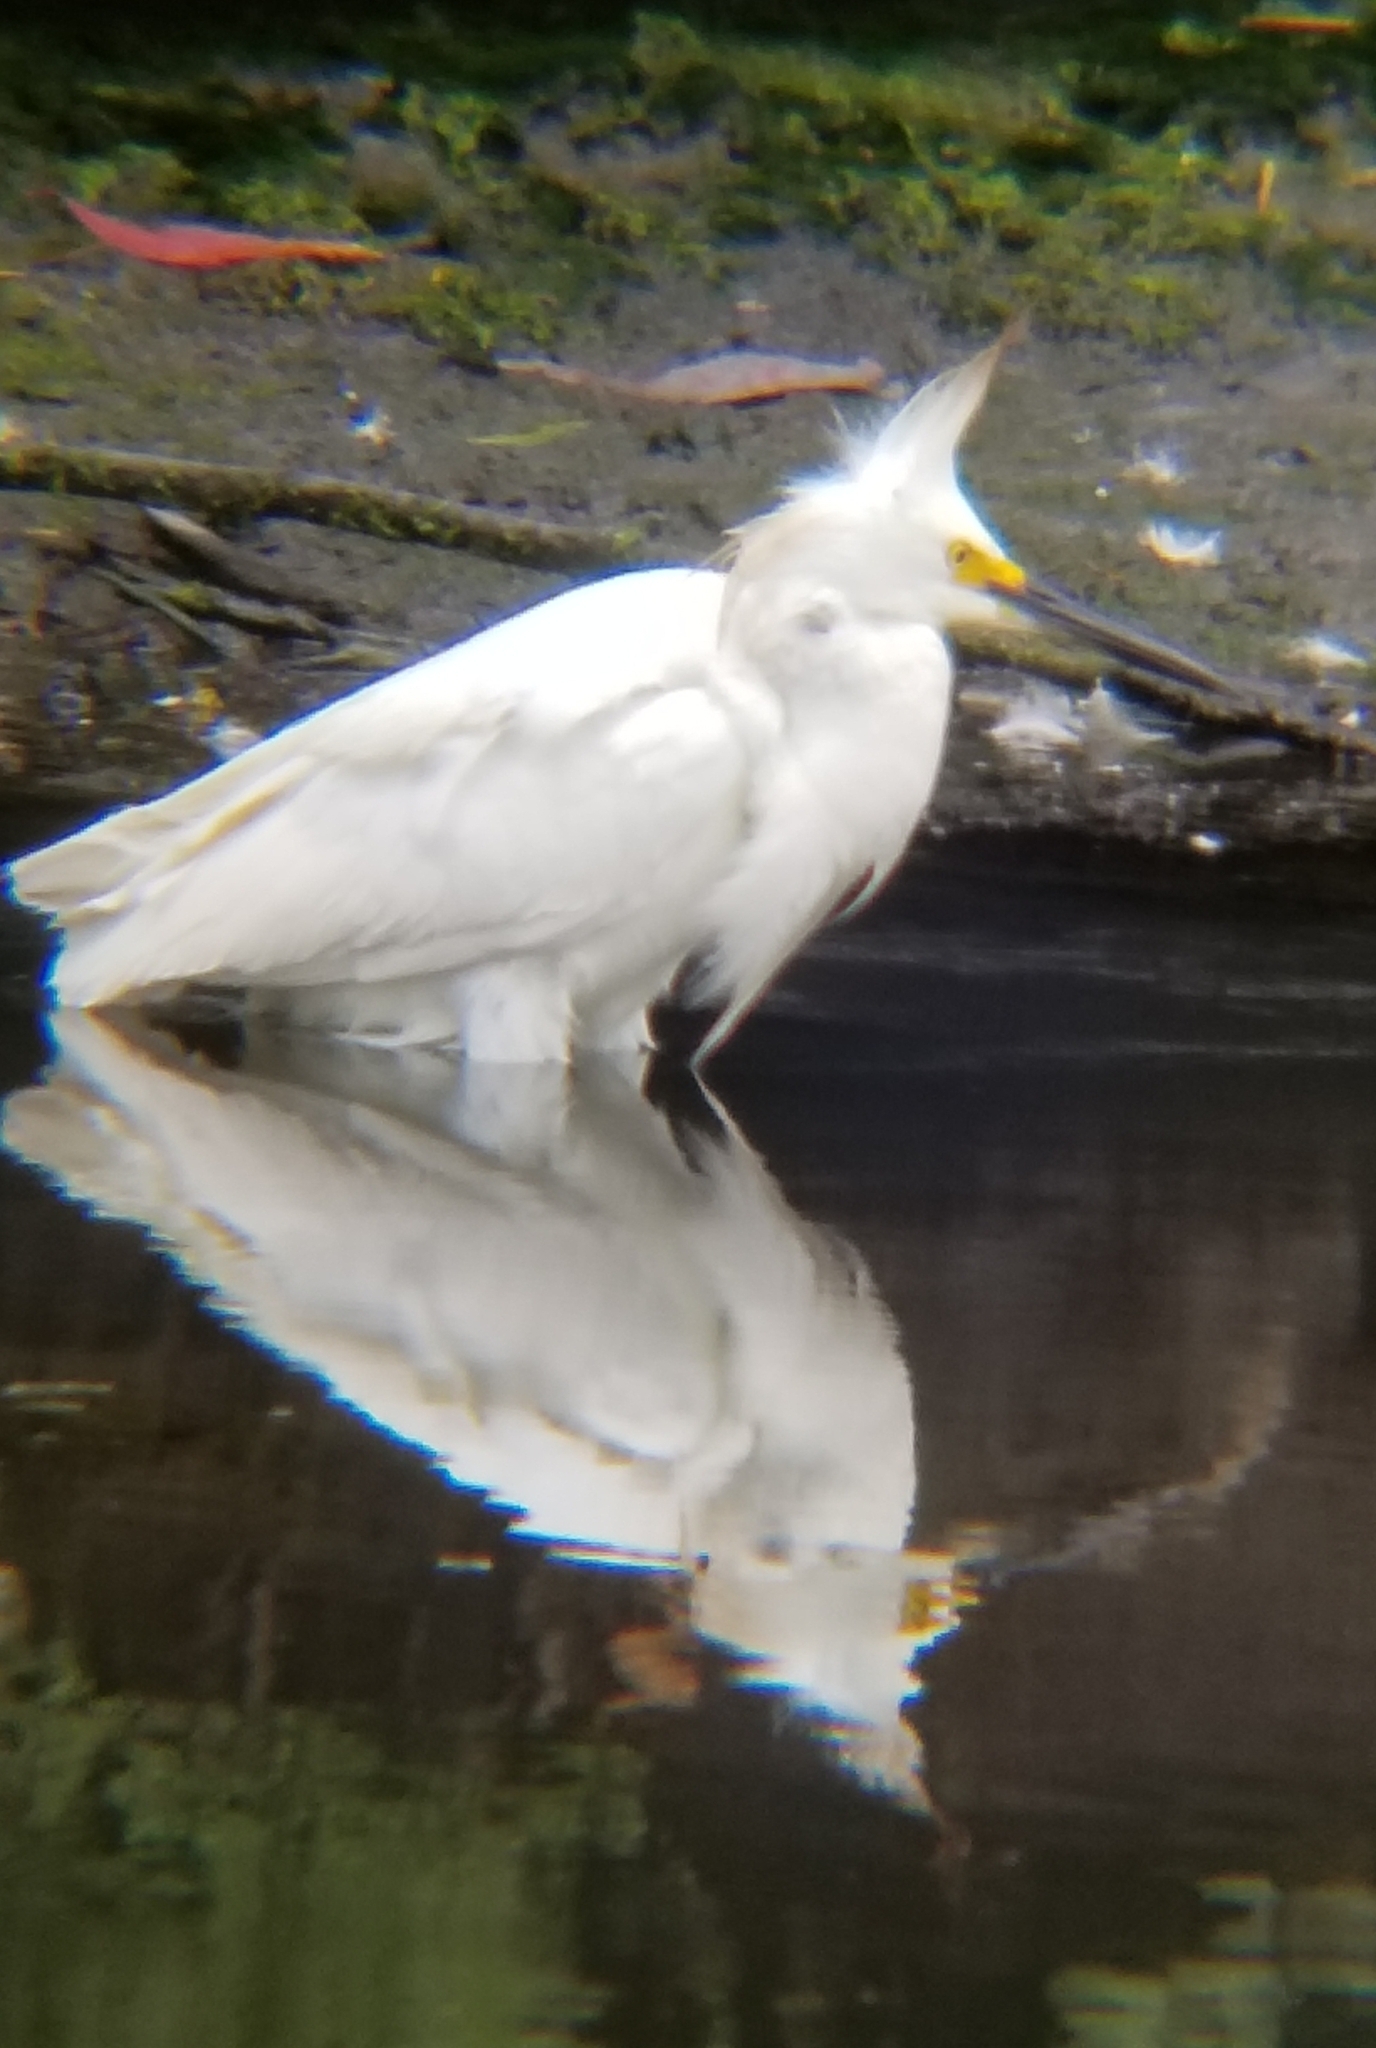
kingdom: Animalia
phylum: Chordata
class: Aves
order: Pelecaniformes
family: Ardeidae
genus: Egretta
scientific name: Egretta thula
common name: Snowy egret
